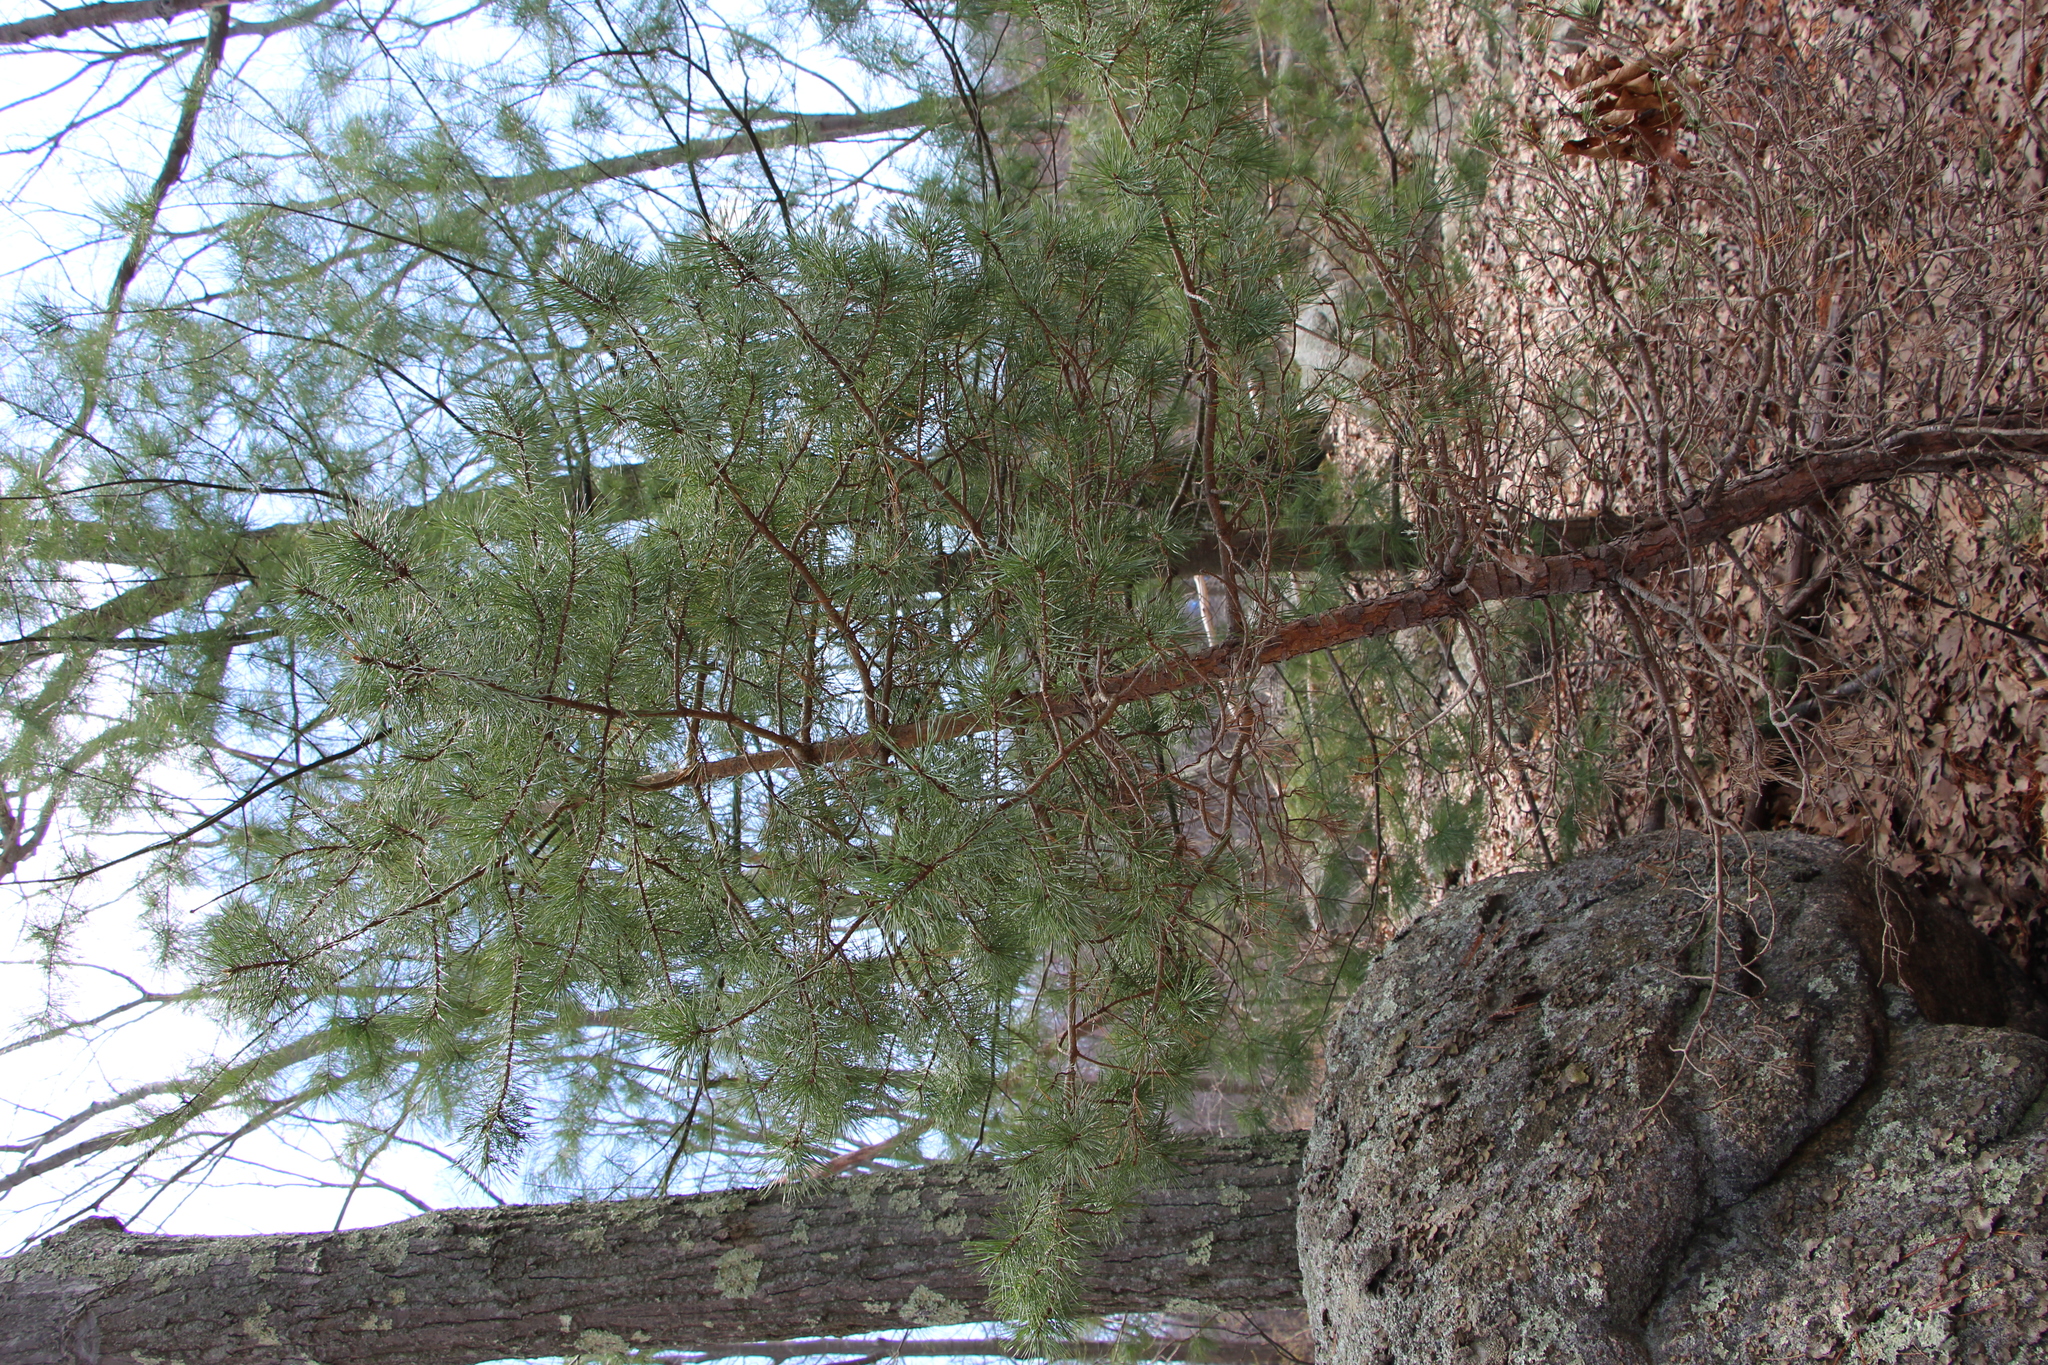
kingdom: Plantae
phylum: Tracheophyta
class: Pinopsida
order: Pinales
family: Pinaceae
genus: Pinus
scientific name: Pinus sylvestris
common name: Scots pine
